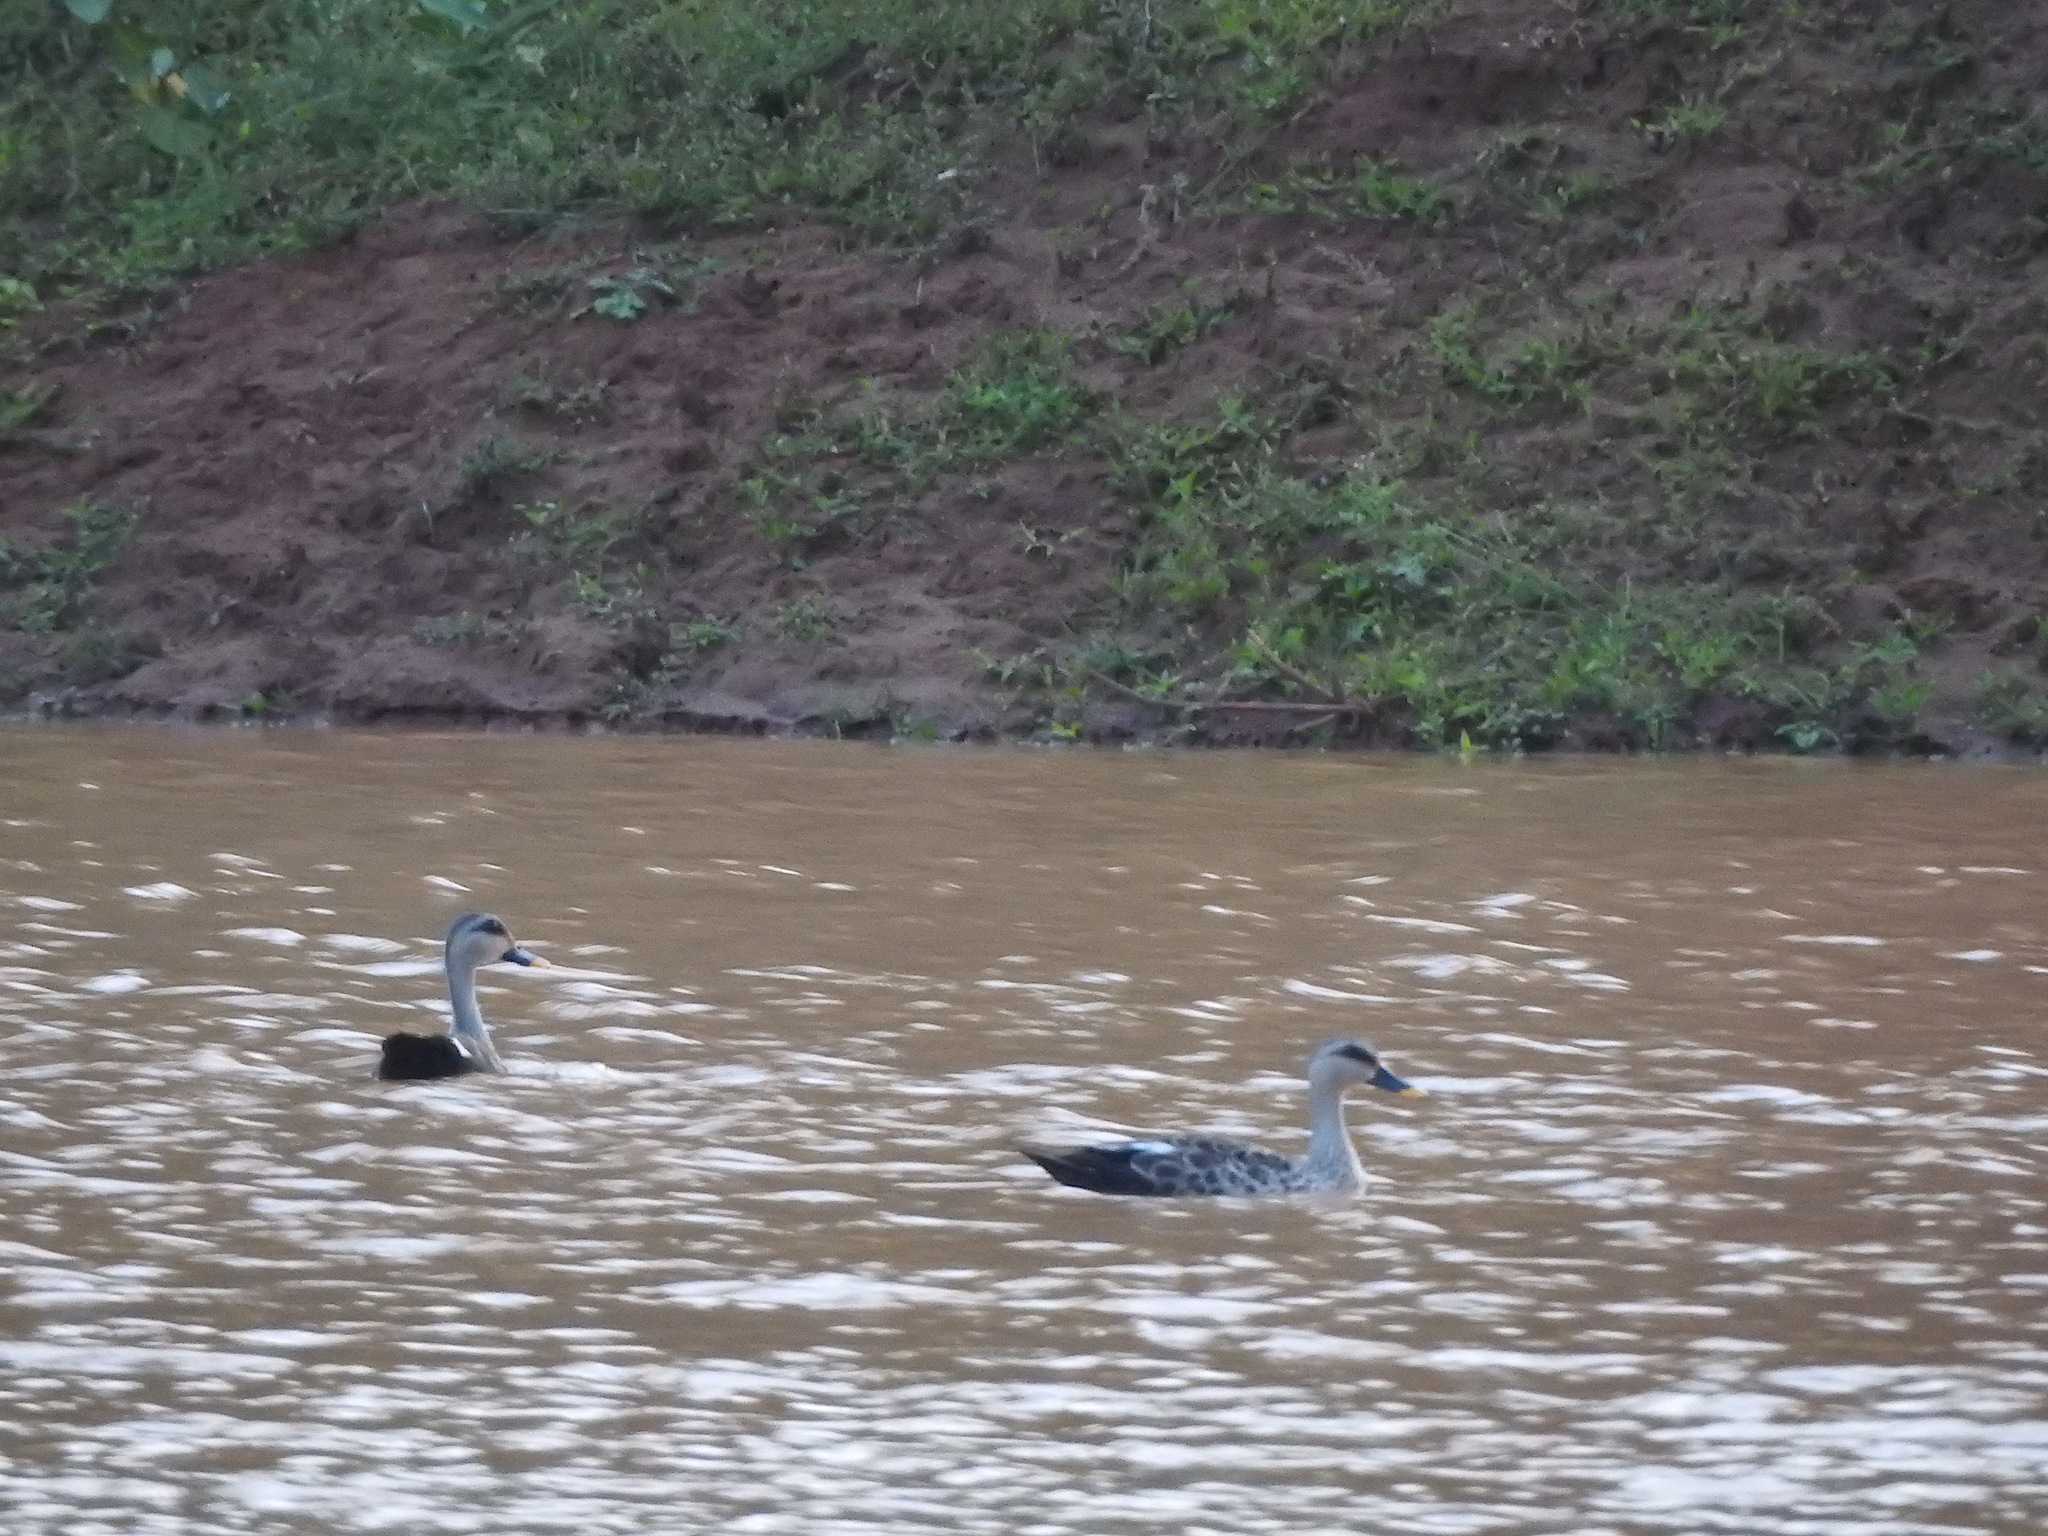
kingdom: Animalia
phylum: Chordata
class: Aves
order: Anseriformes
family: Anatidae
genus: Anas
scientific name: Anas poecilorhyncha
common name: Indian spot-billed duck
